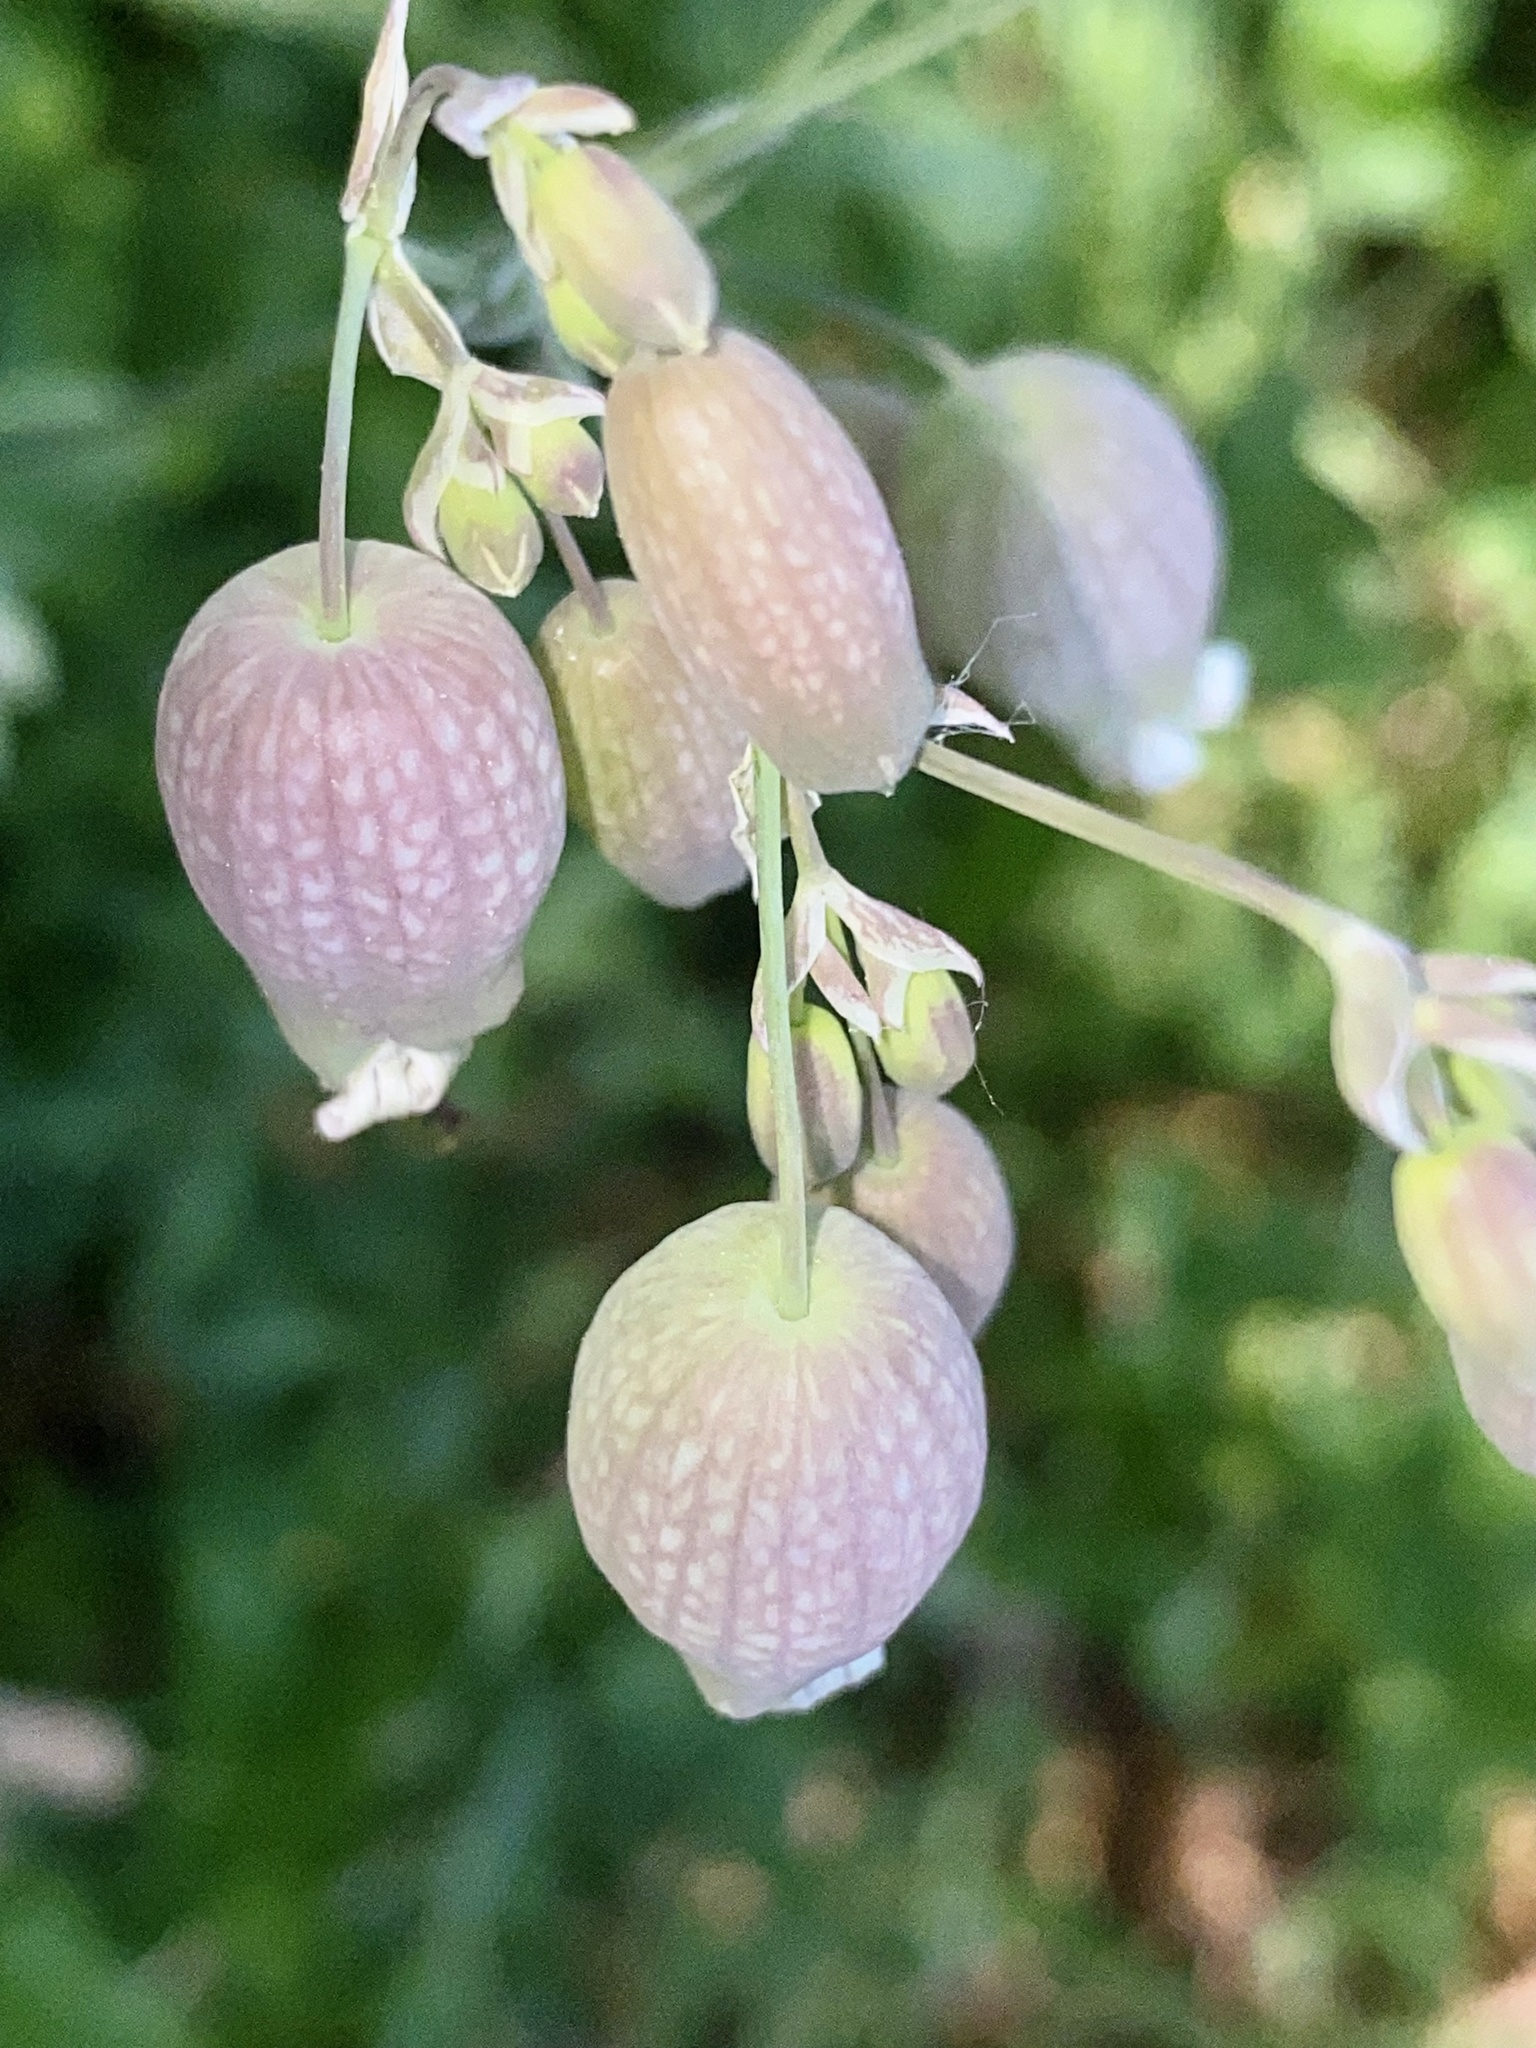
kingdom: Plantae
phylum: Tracheophyta
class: Magnoliopsida
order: Caryophyllales
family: Caryophyllaceae
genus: Silene
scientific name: Silene vulgaris
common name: Bladder campion
